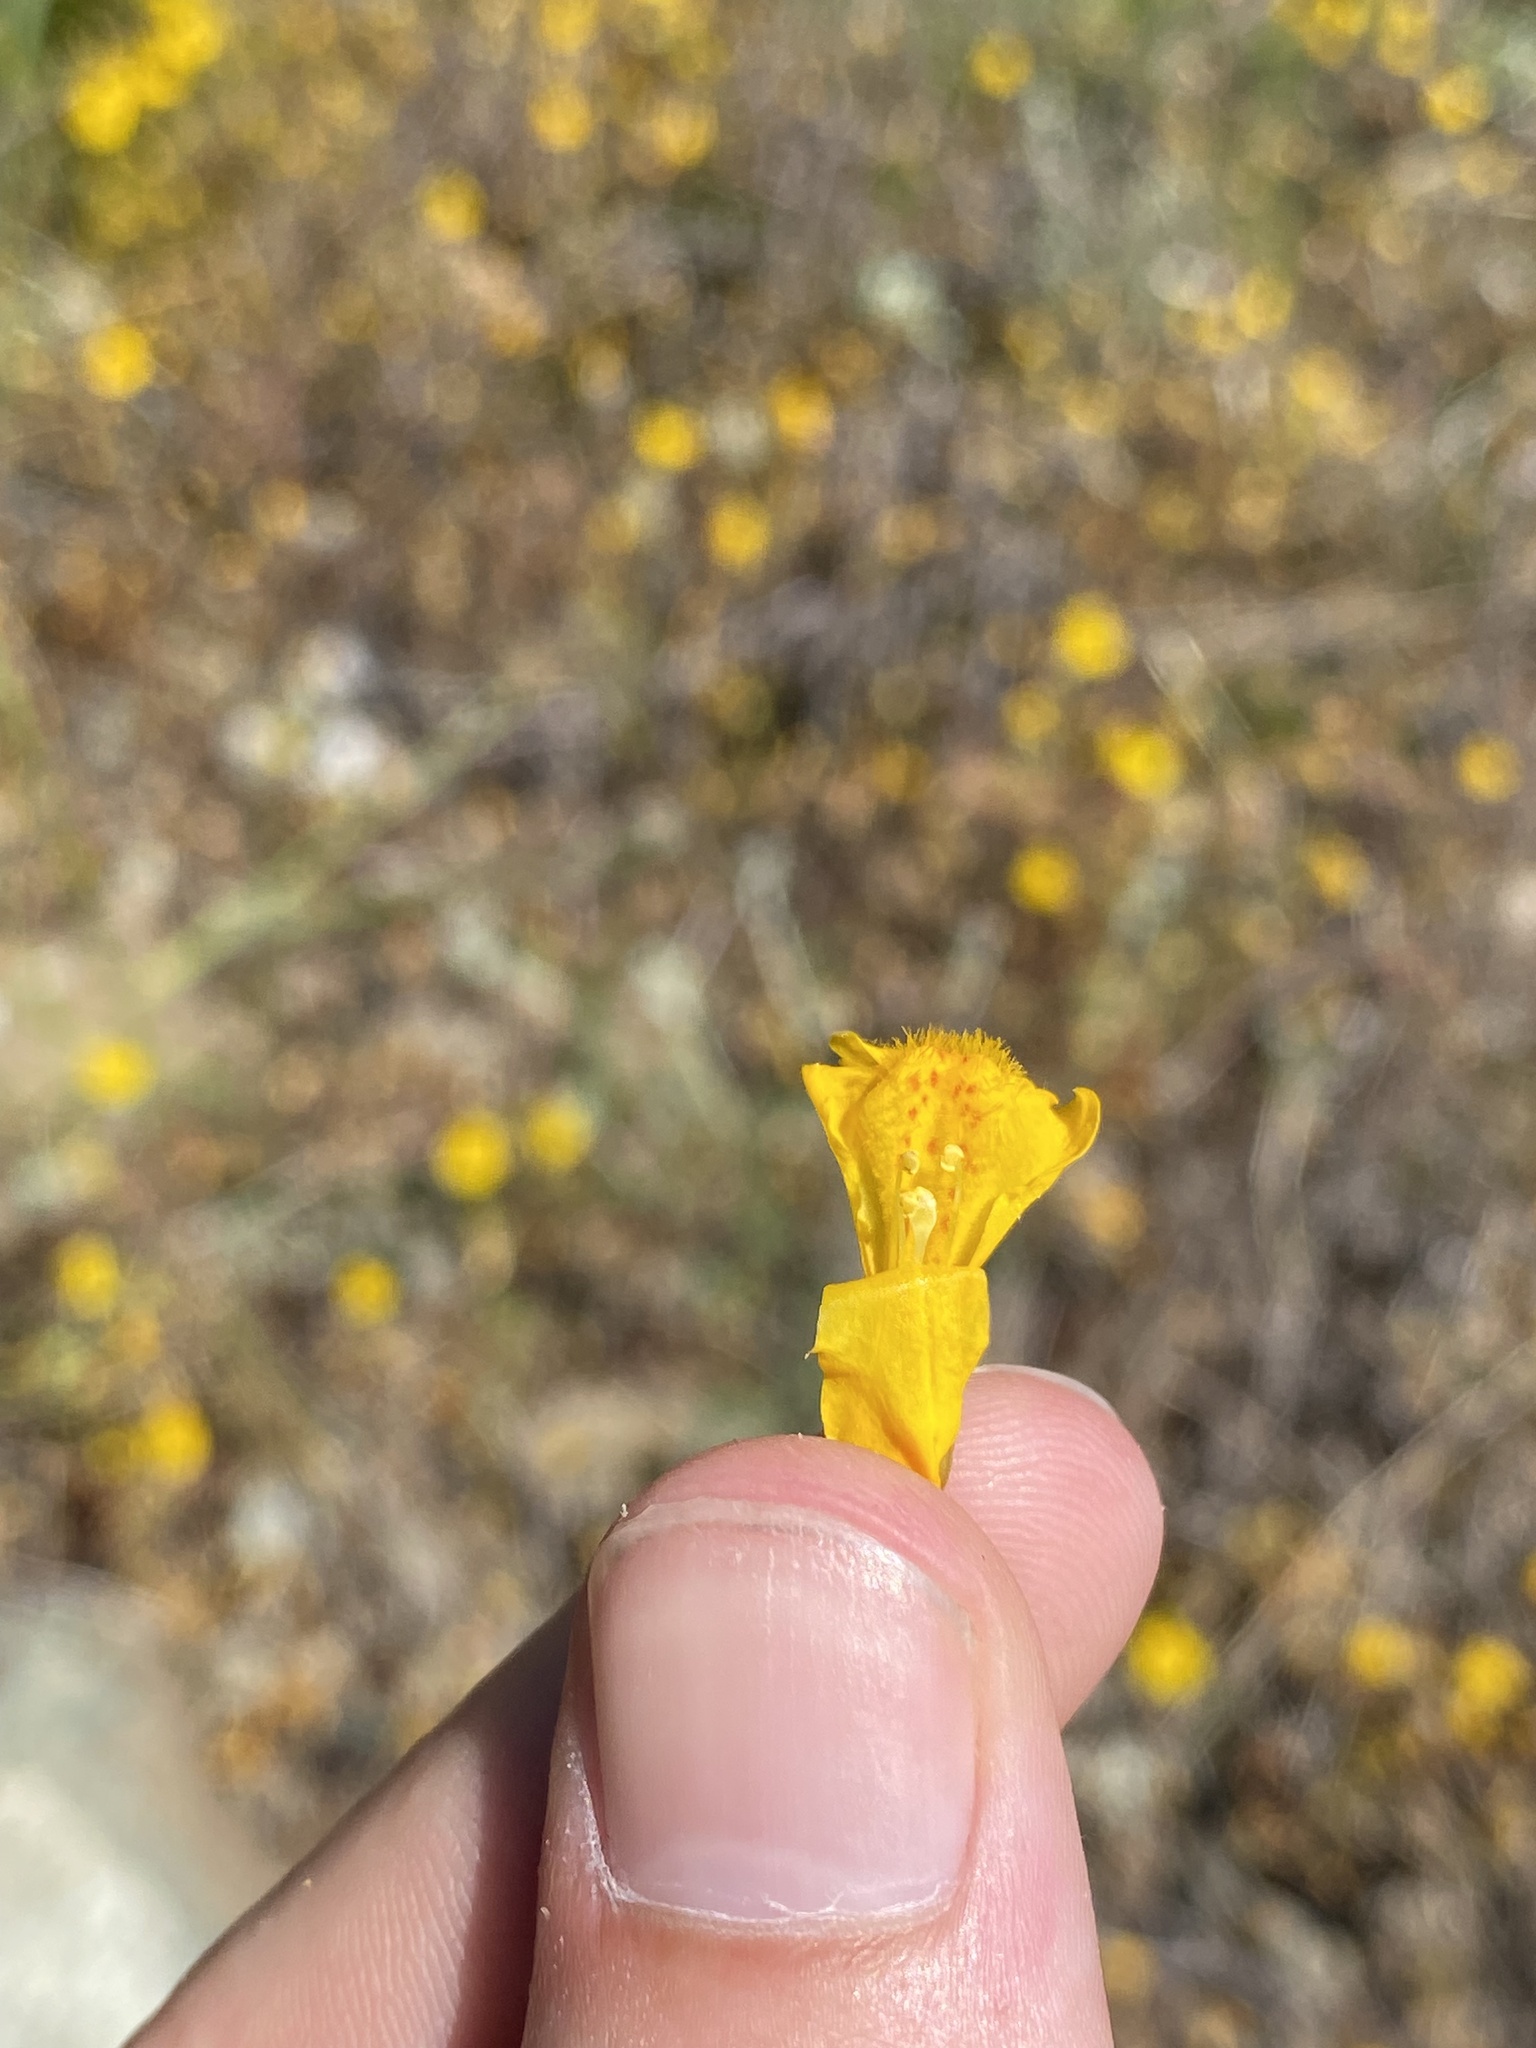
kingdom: Plantae
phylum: Tracheophyta
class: Magnoliopsida
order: Lamiales
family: Phrymaceae
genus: Erythranthe
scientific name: Erythranthe nasuta
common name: Sooke monkeyflower
